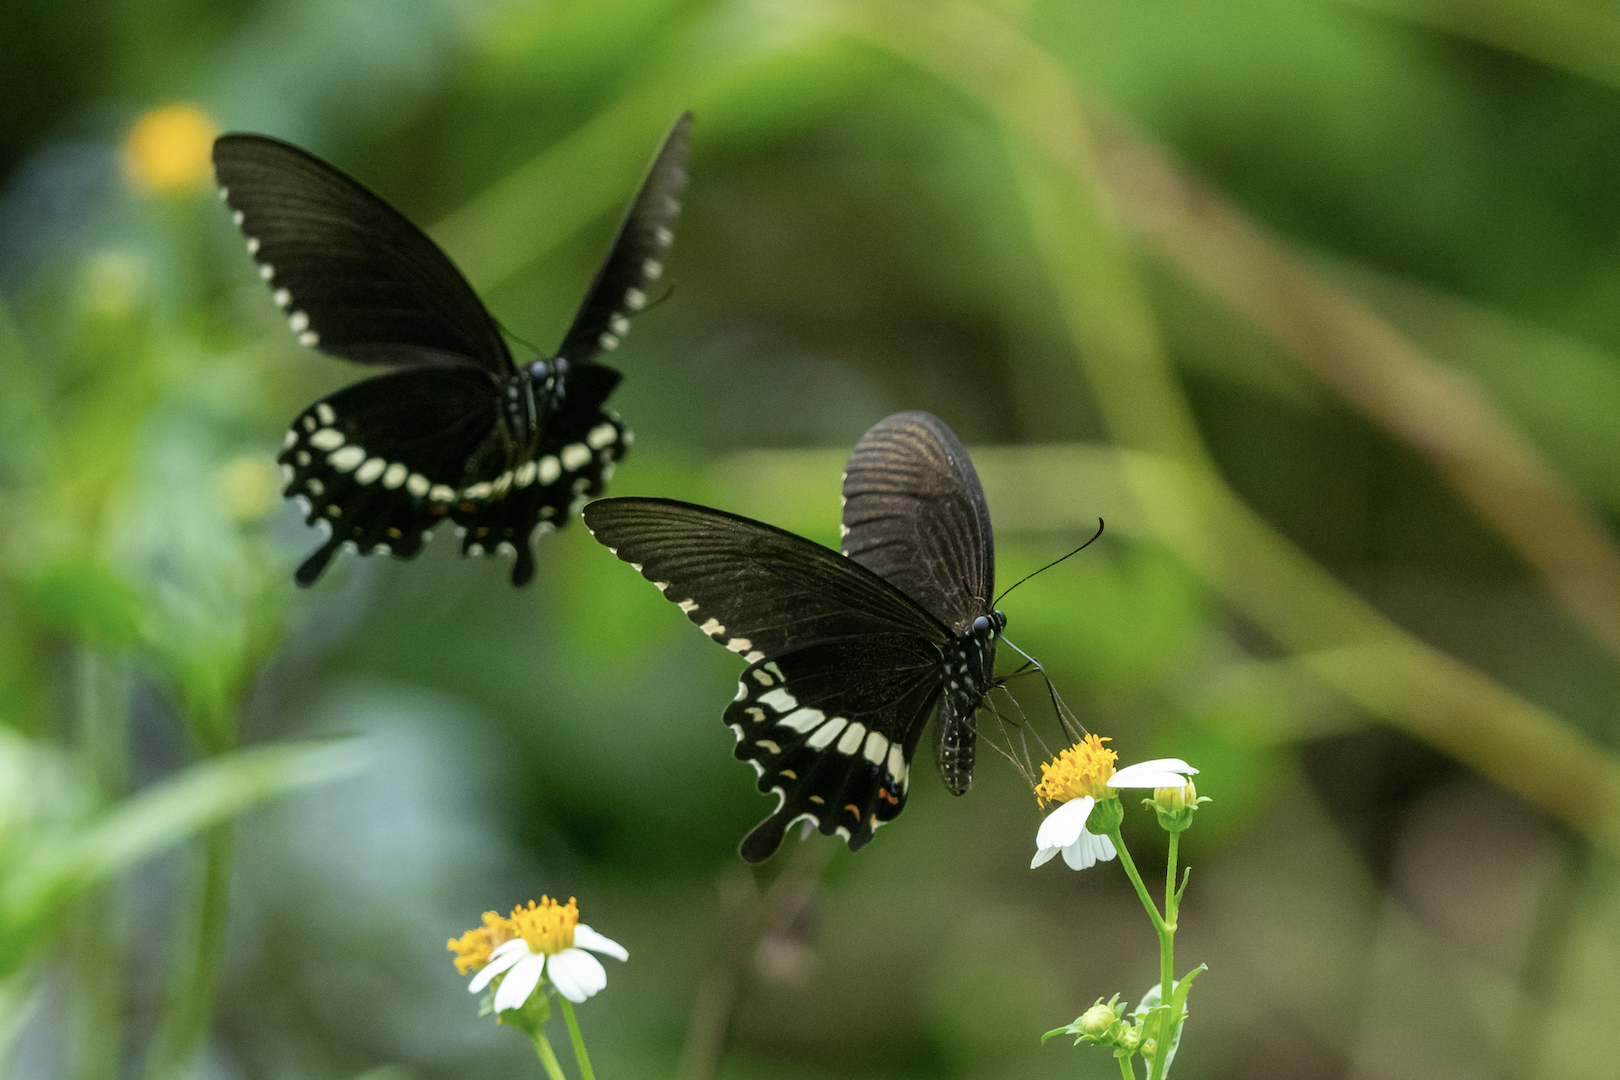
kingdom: Animalia
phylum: Arthropoda
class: Insecta
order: Lepidoptera
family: Papilionidae
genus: Papilio
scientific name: Papilio polytes
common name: Common mormon
